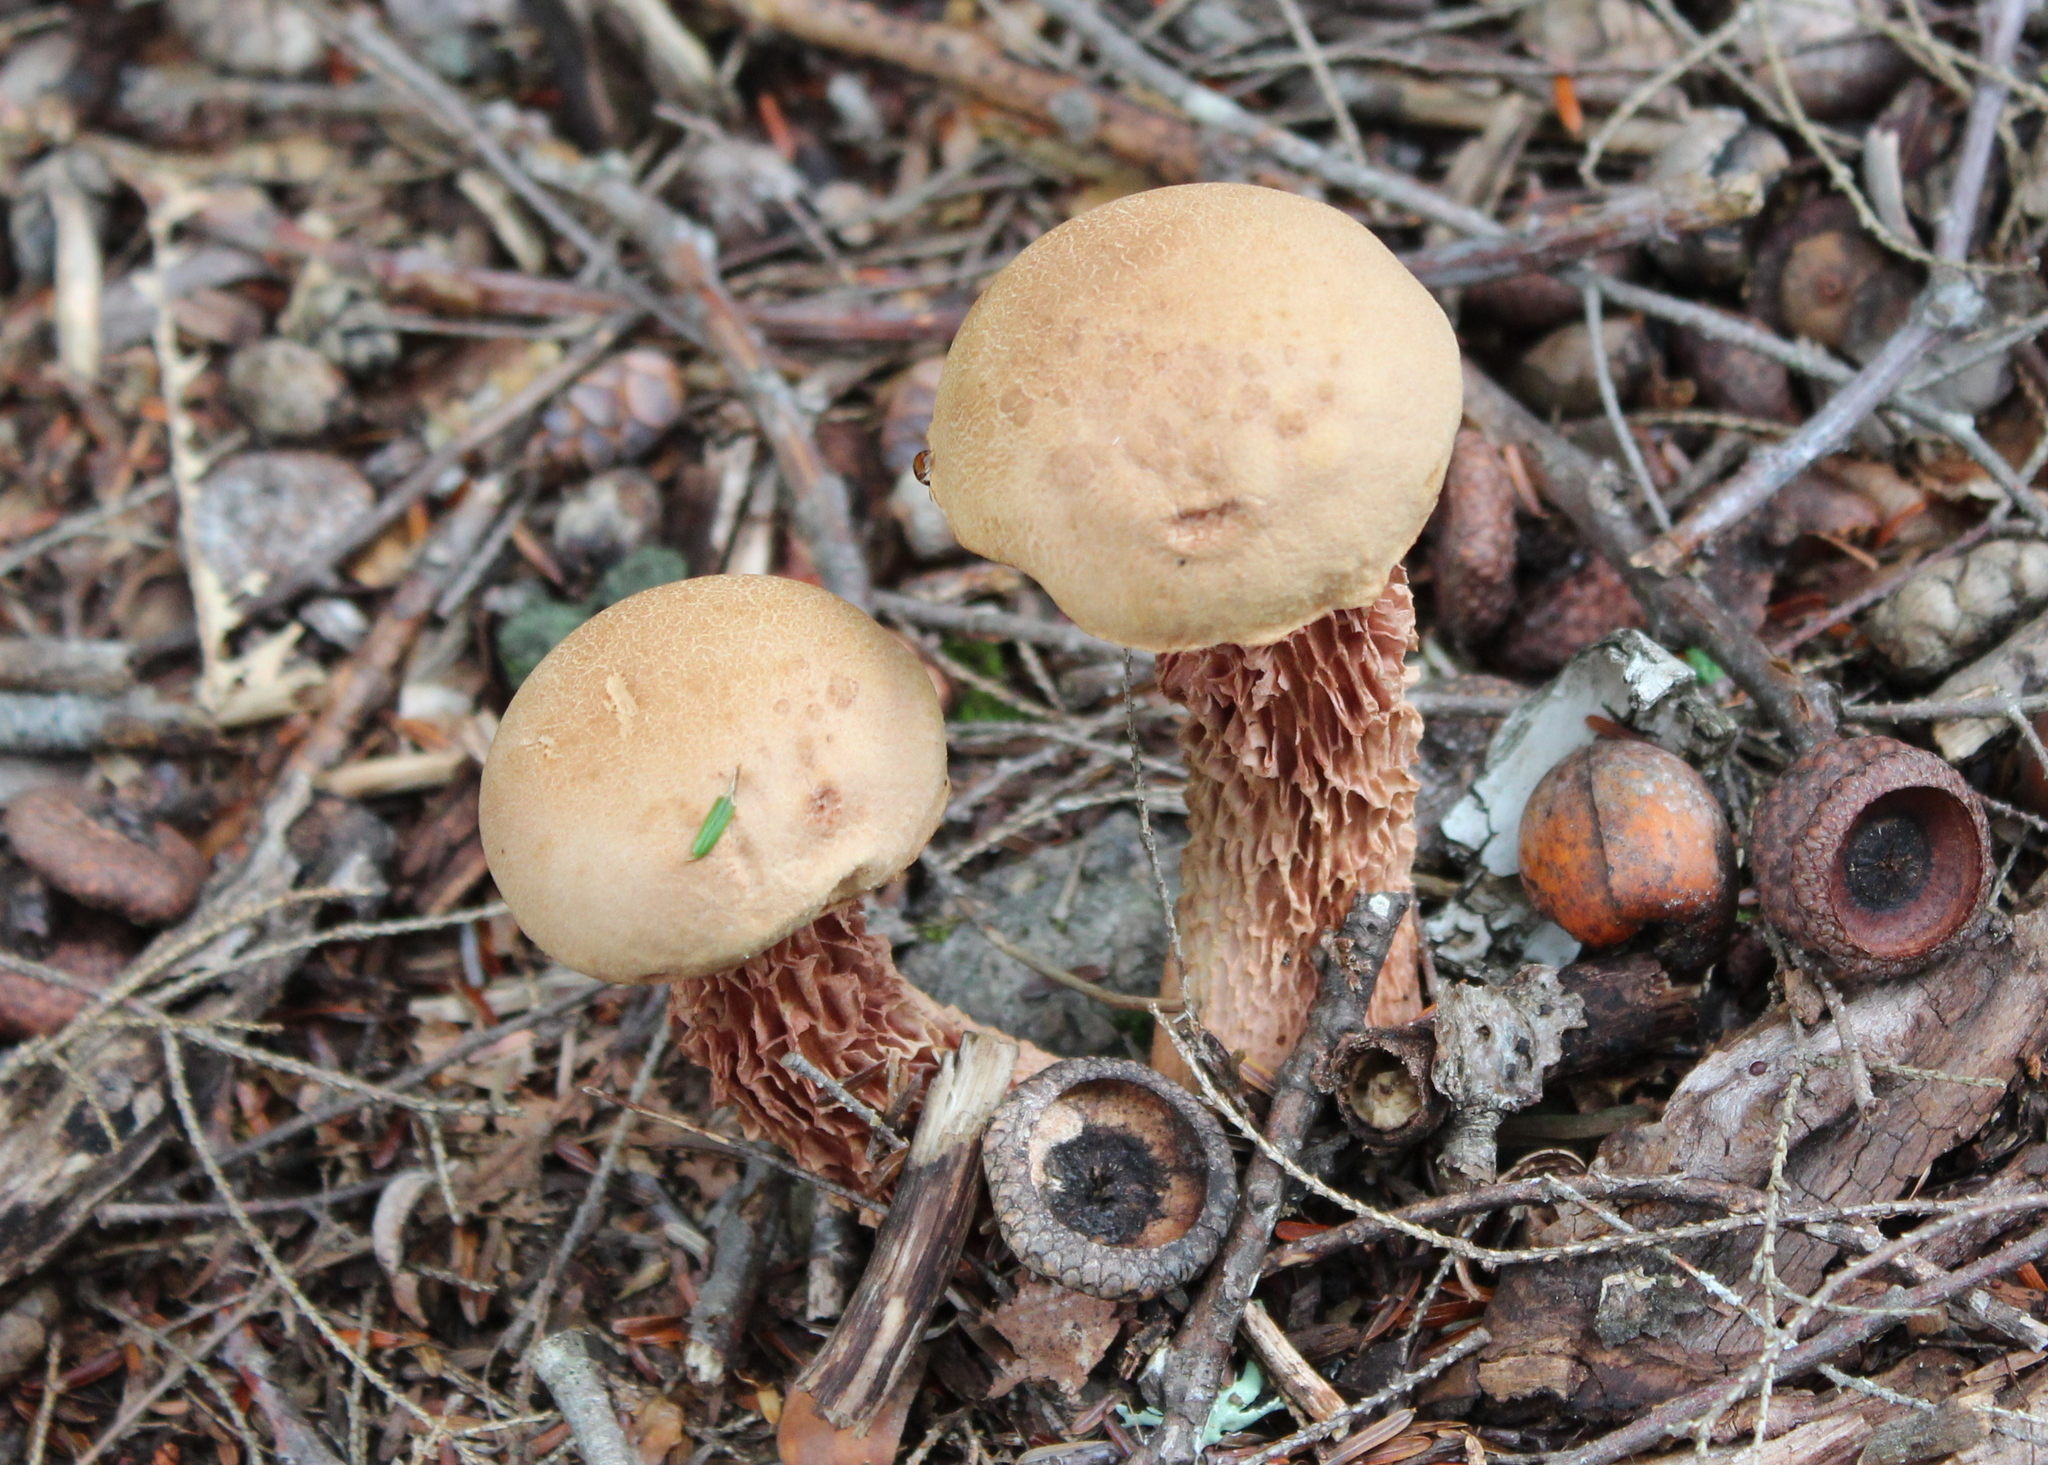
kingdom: Fungi
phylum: Basidiomycota
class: Agaricomycetes
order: Boletales
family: Boletaceae
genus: Aureoboletus
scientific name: Aureoboletus russellii
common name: Russell's bolete
